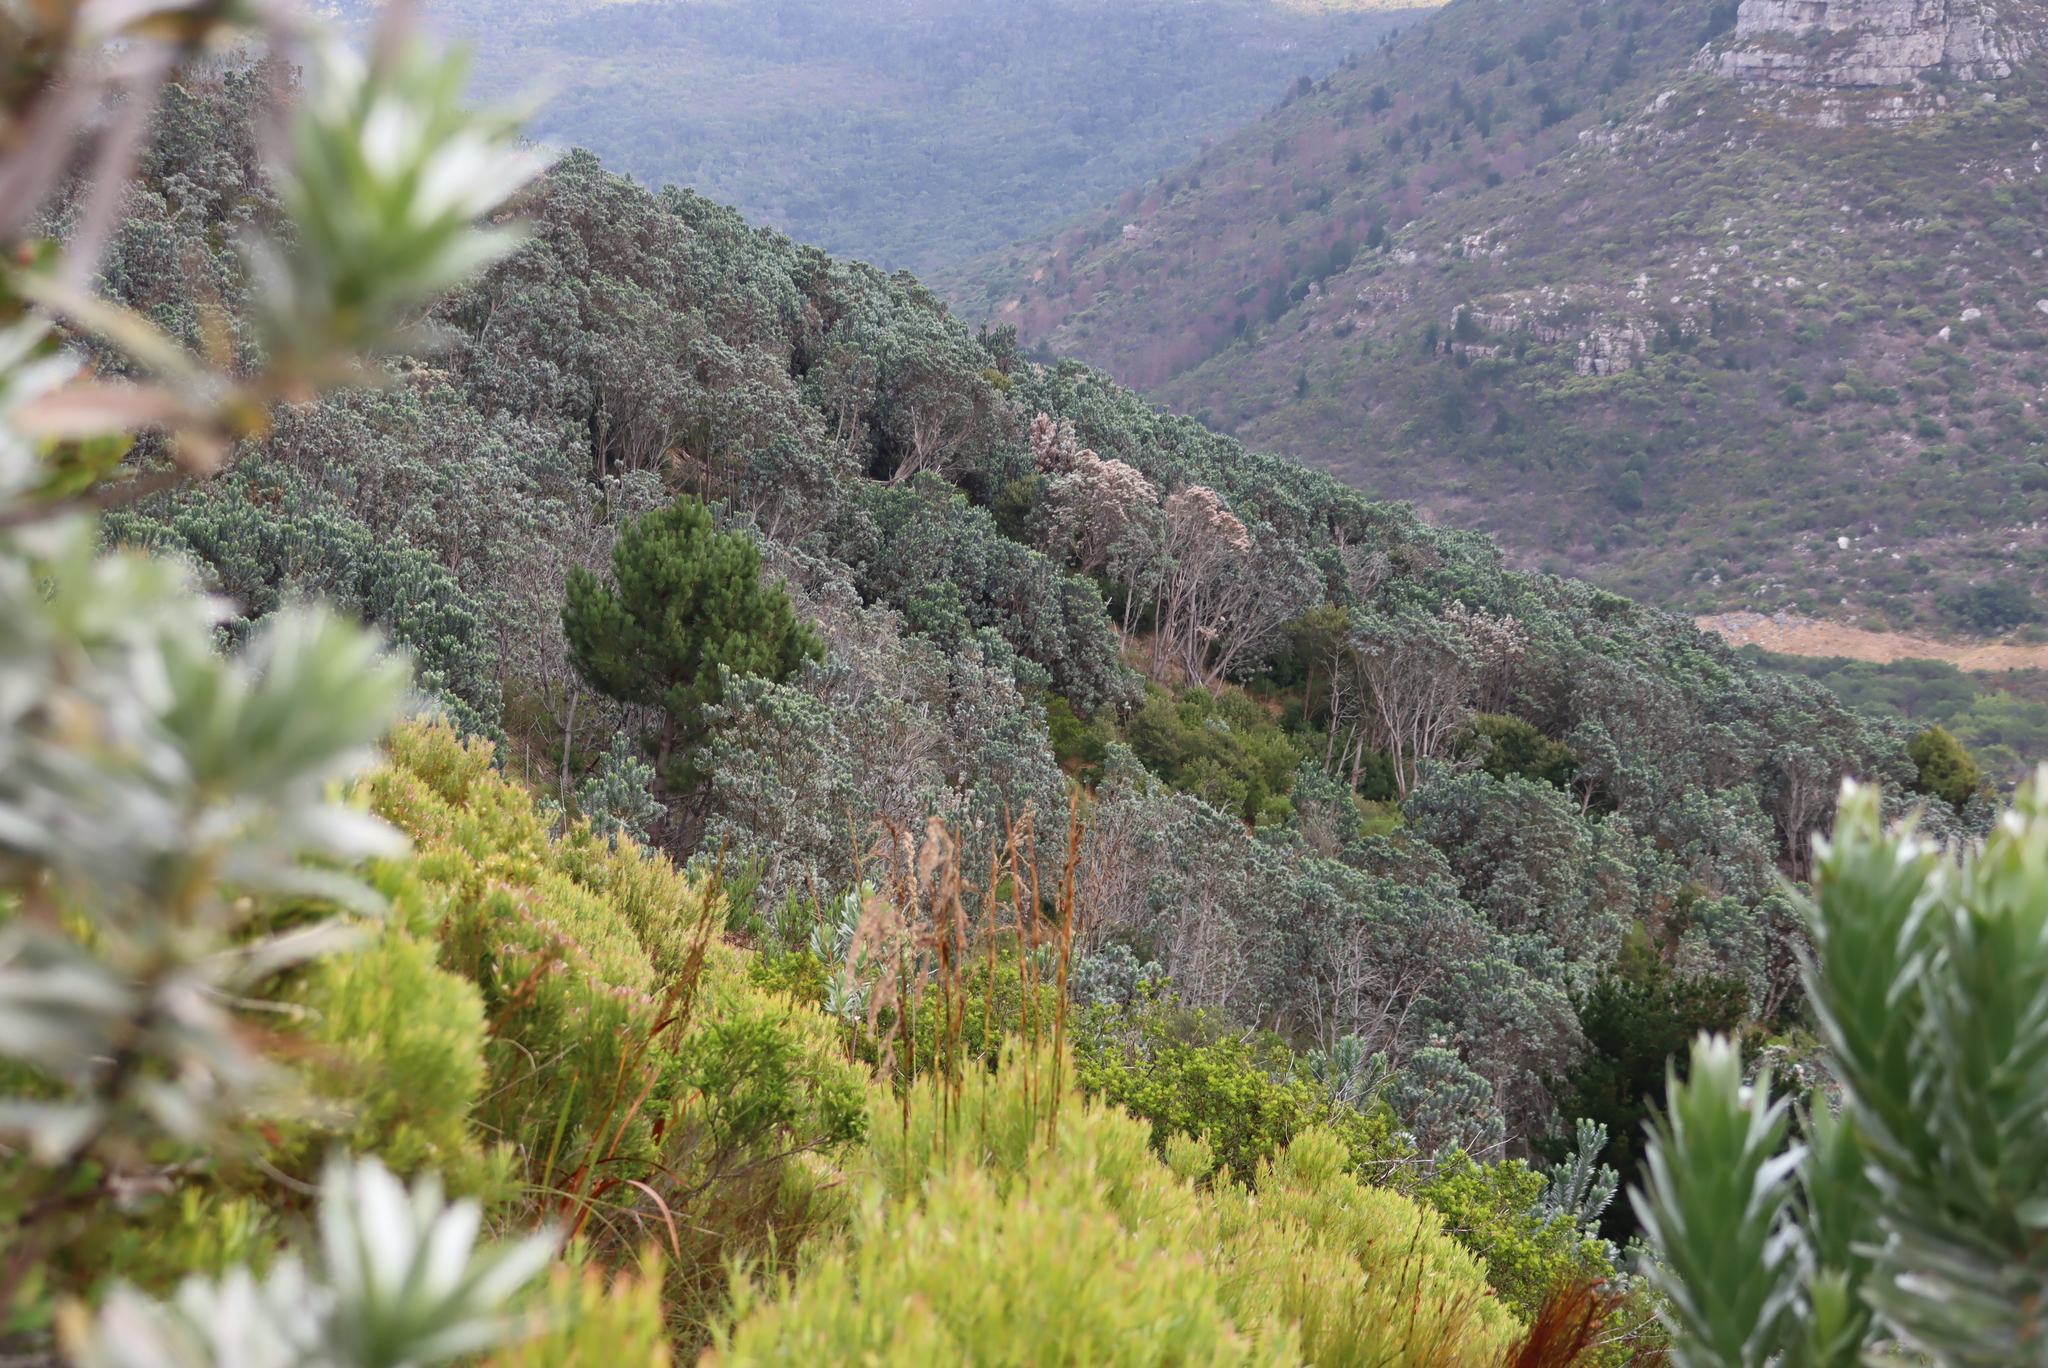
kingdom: Plantae
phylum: Tracheophyta
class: Magnoliopsida
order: Proteales
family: Proteaceae
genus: Leucadendron
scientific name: Leucadendron argenteum
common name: Cape silver tree
